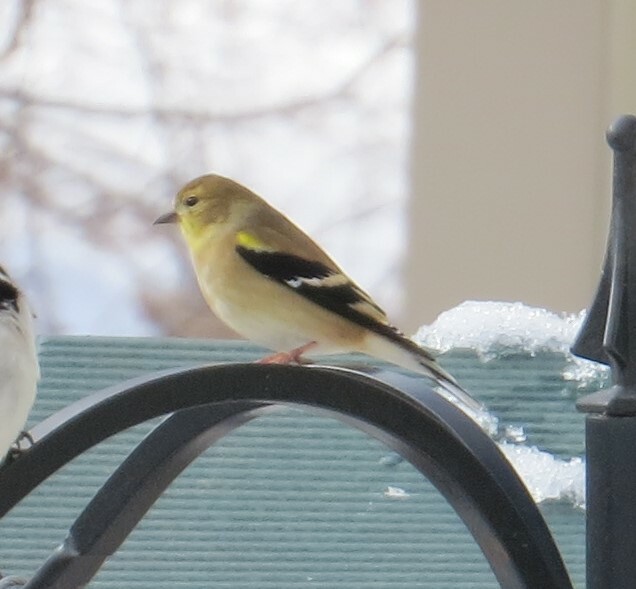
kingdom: Animalia
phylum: Chordata
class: Aves
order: Passeriformes
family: Fringillidae
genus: Spinus
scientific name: Spinus tristis
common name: American goldfinch
